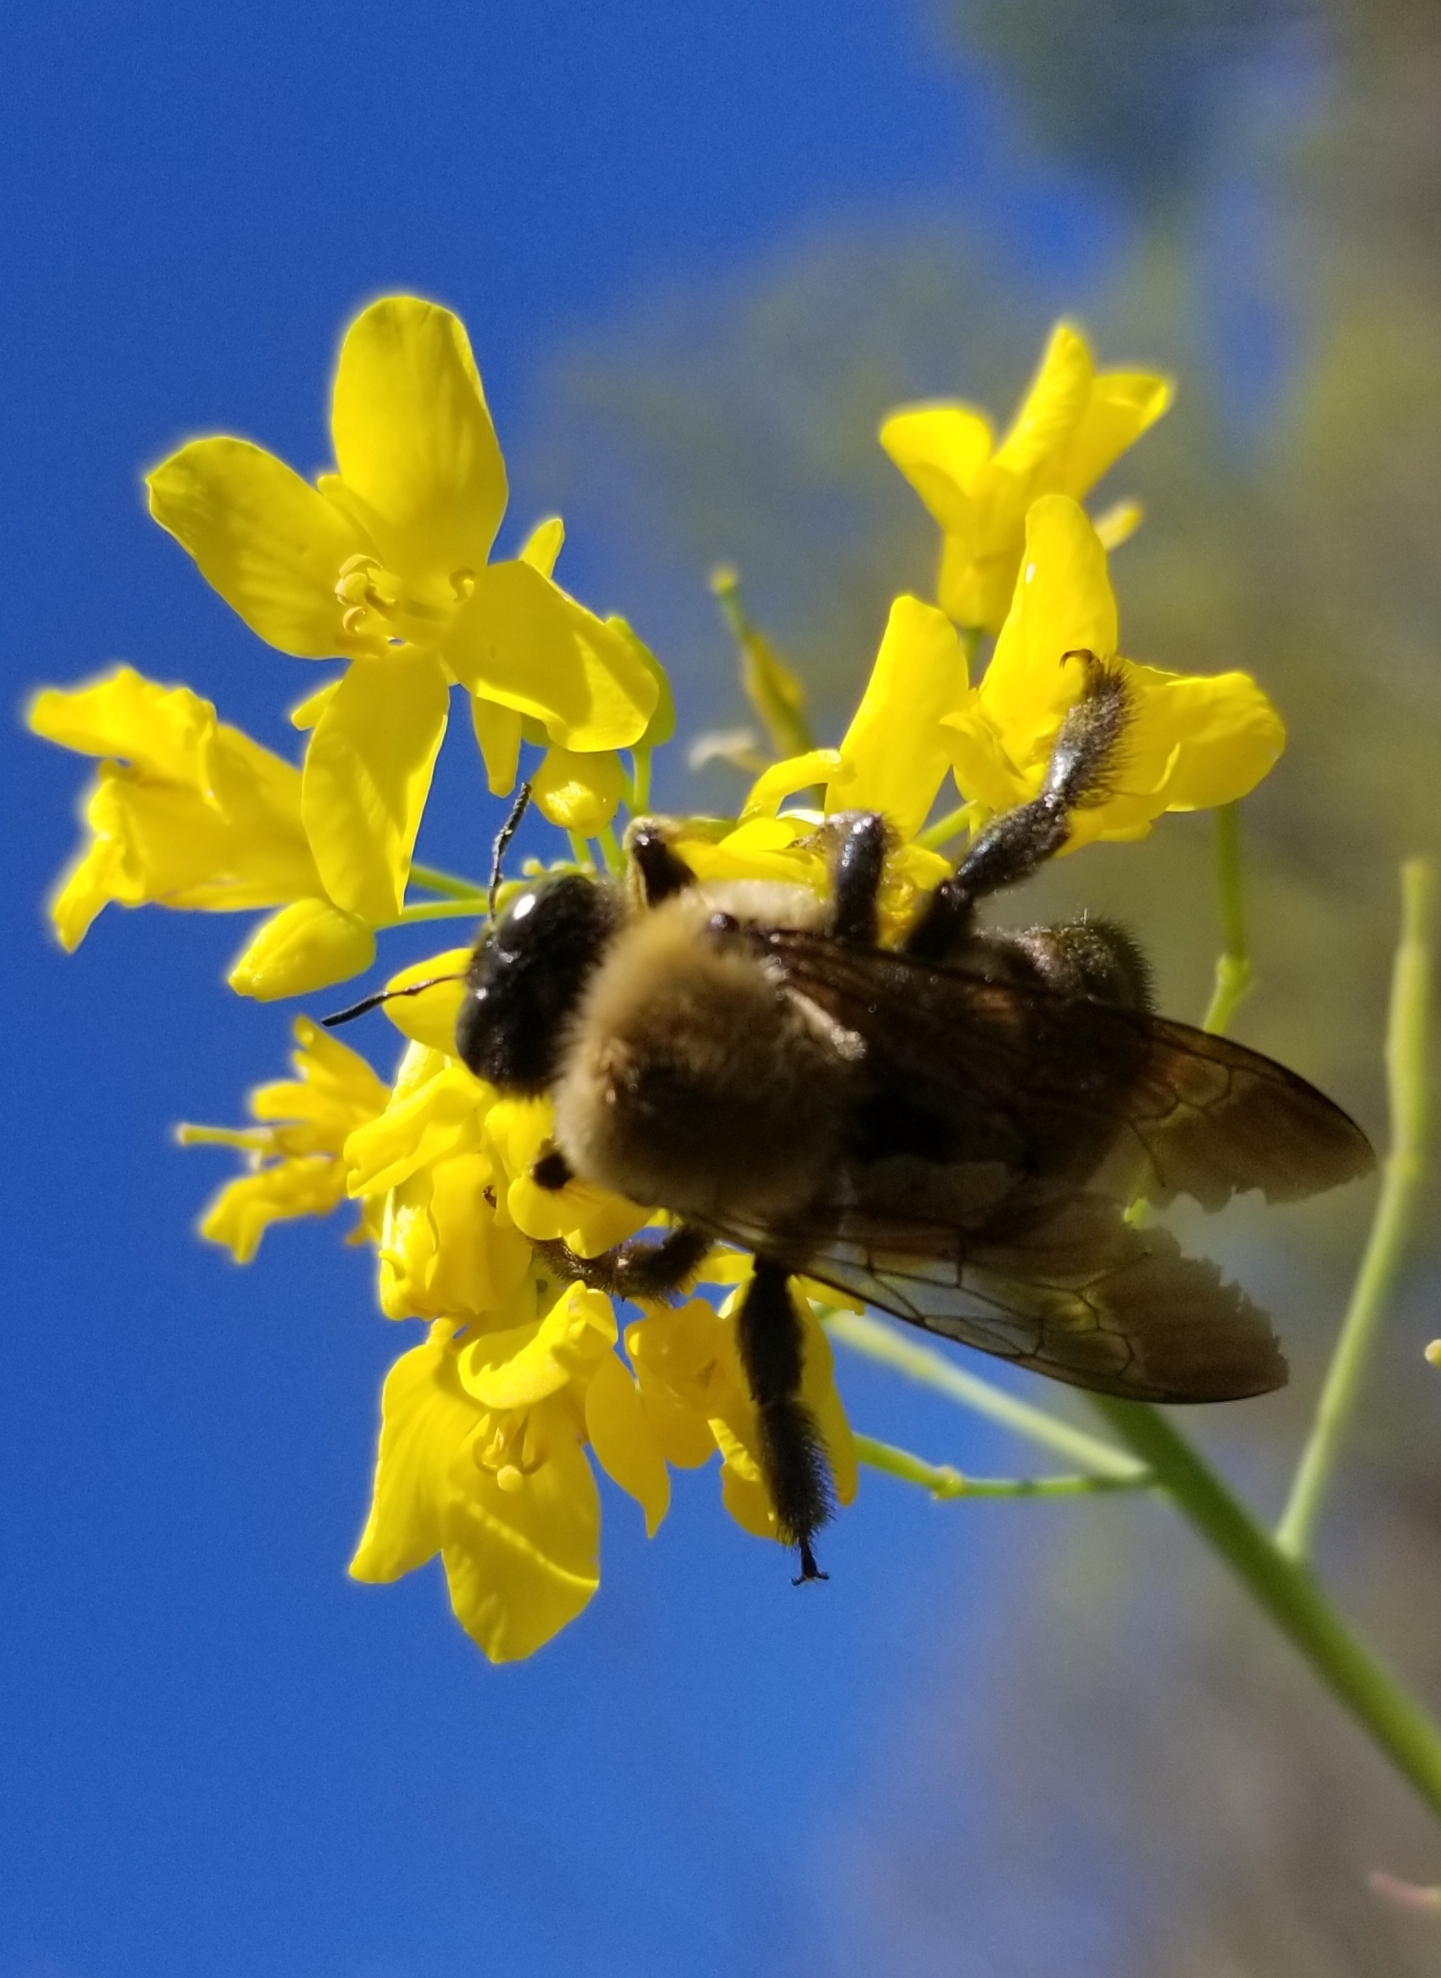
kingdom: Animalia
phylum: Arthropoda
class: Insecta
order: Hymenoptera
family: Apidae
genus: Xylocopa
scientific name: Xylocopa virginica
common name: Carpenter bee
